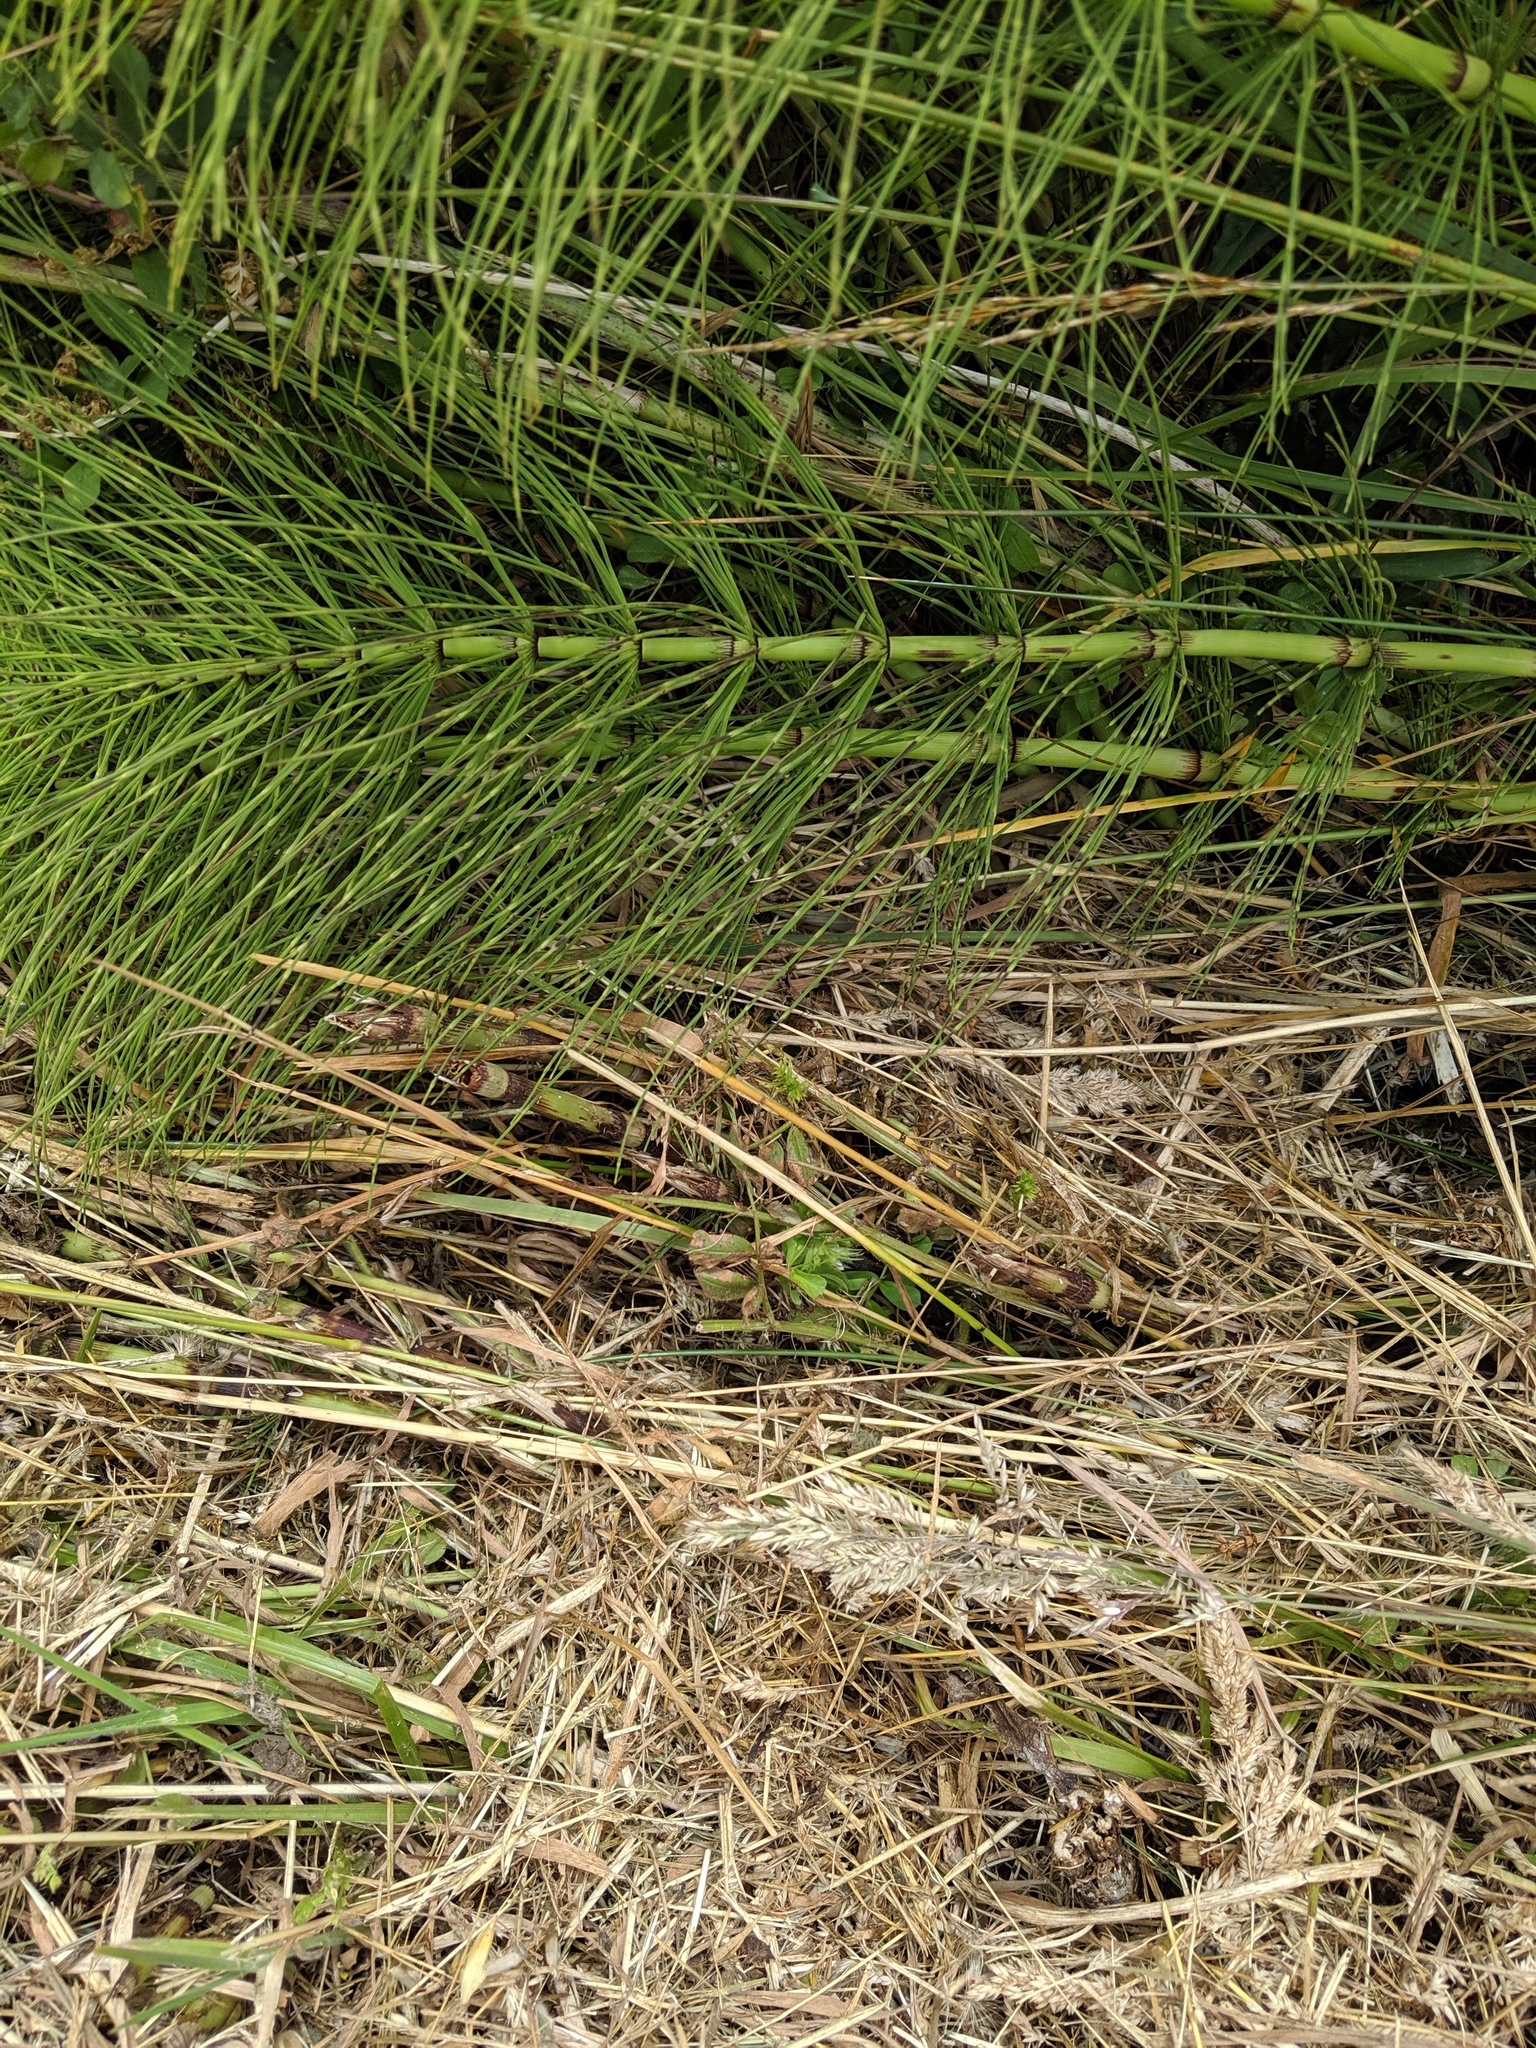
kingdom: Plantae
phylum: Tracheophyta
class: Polypodiopsida
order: Equisetales
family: Equisetaceae
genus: Equisetum
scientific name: Equisetum telmateia
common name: Great horsetail
